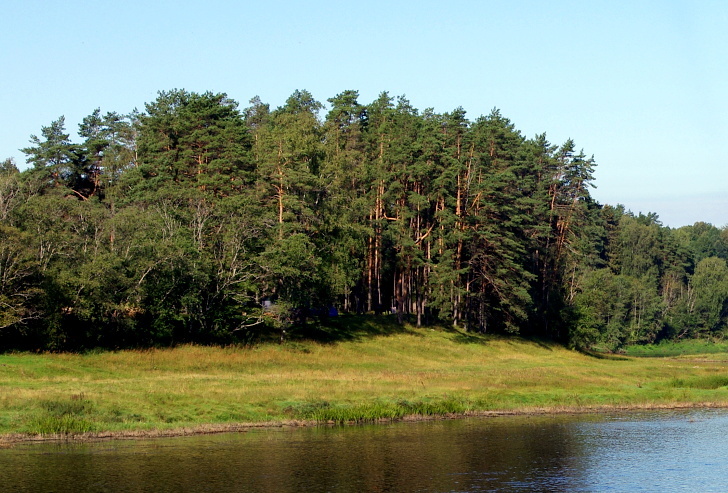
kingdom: Plantae
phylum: Tracheophyta
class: Pinopsida
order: Pinales
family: Pinaceae
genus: Pinus
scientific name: Pinus sylvestris
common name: Scots pine
